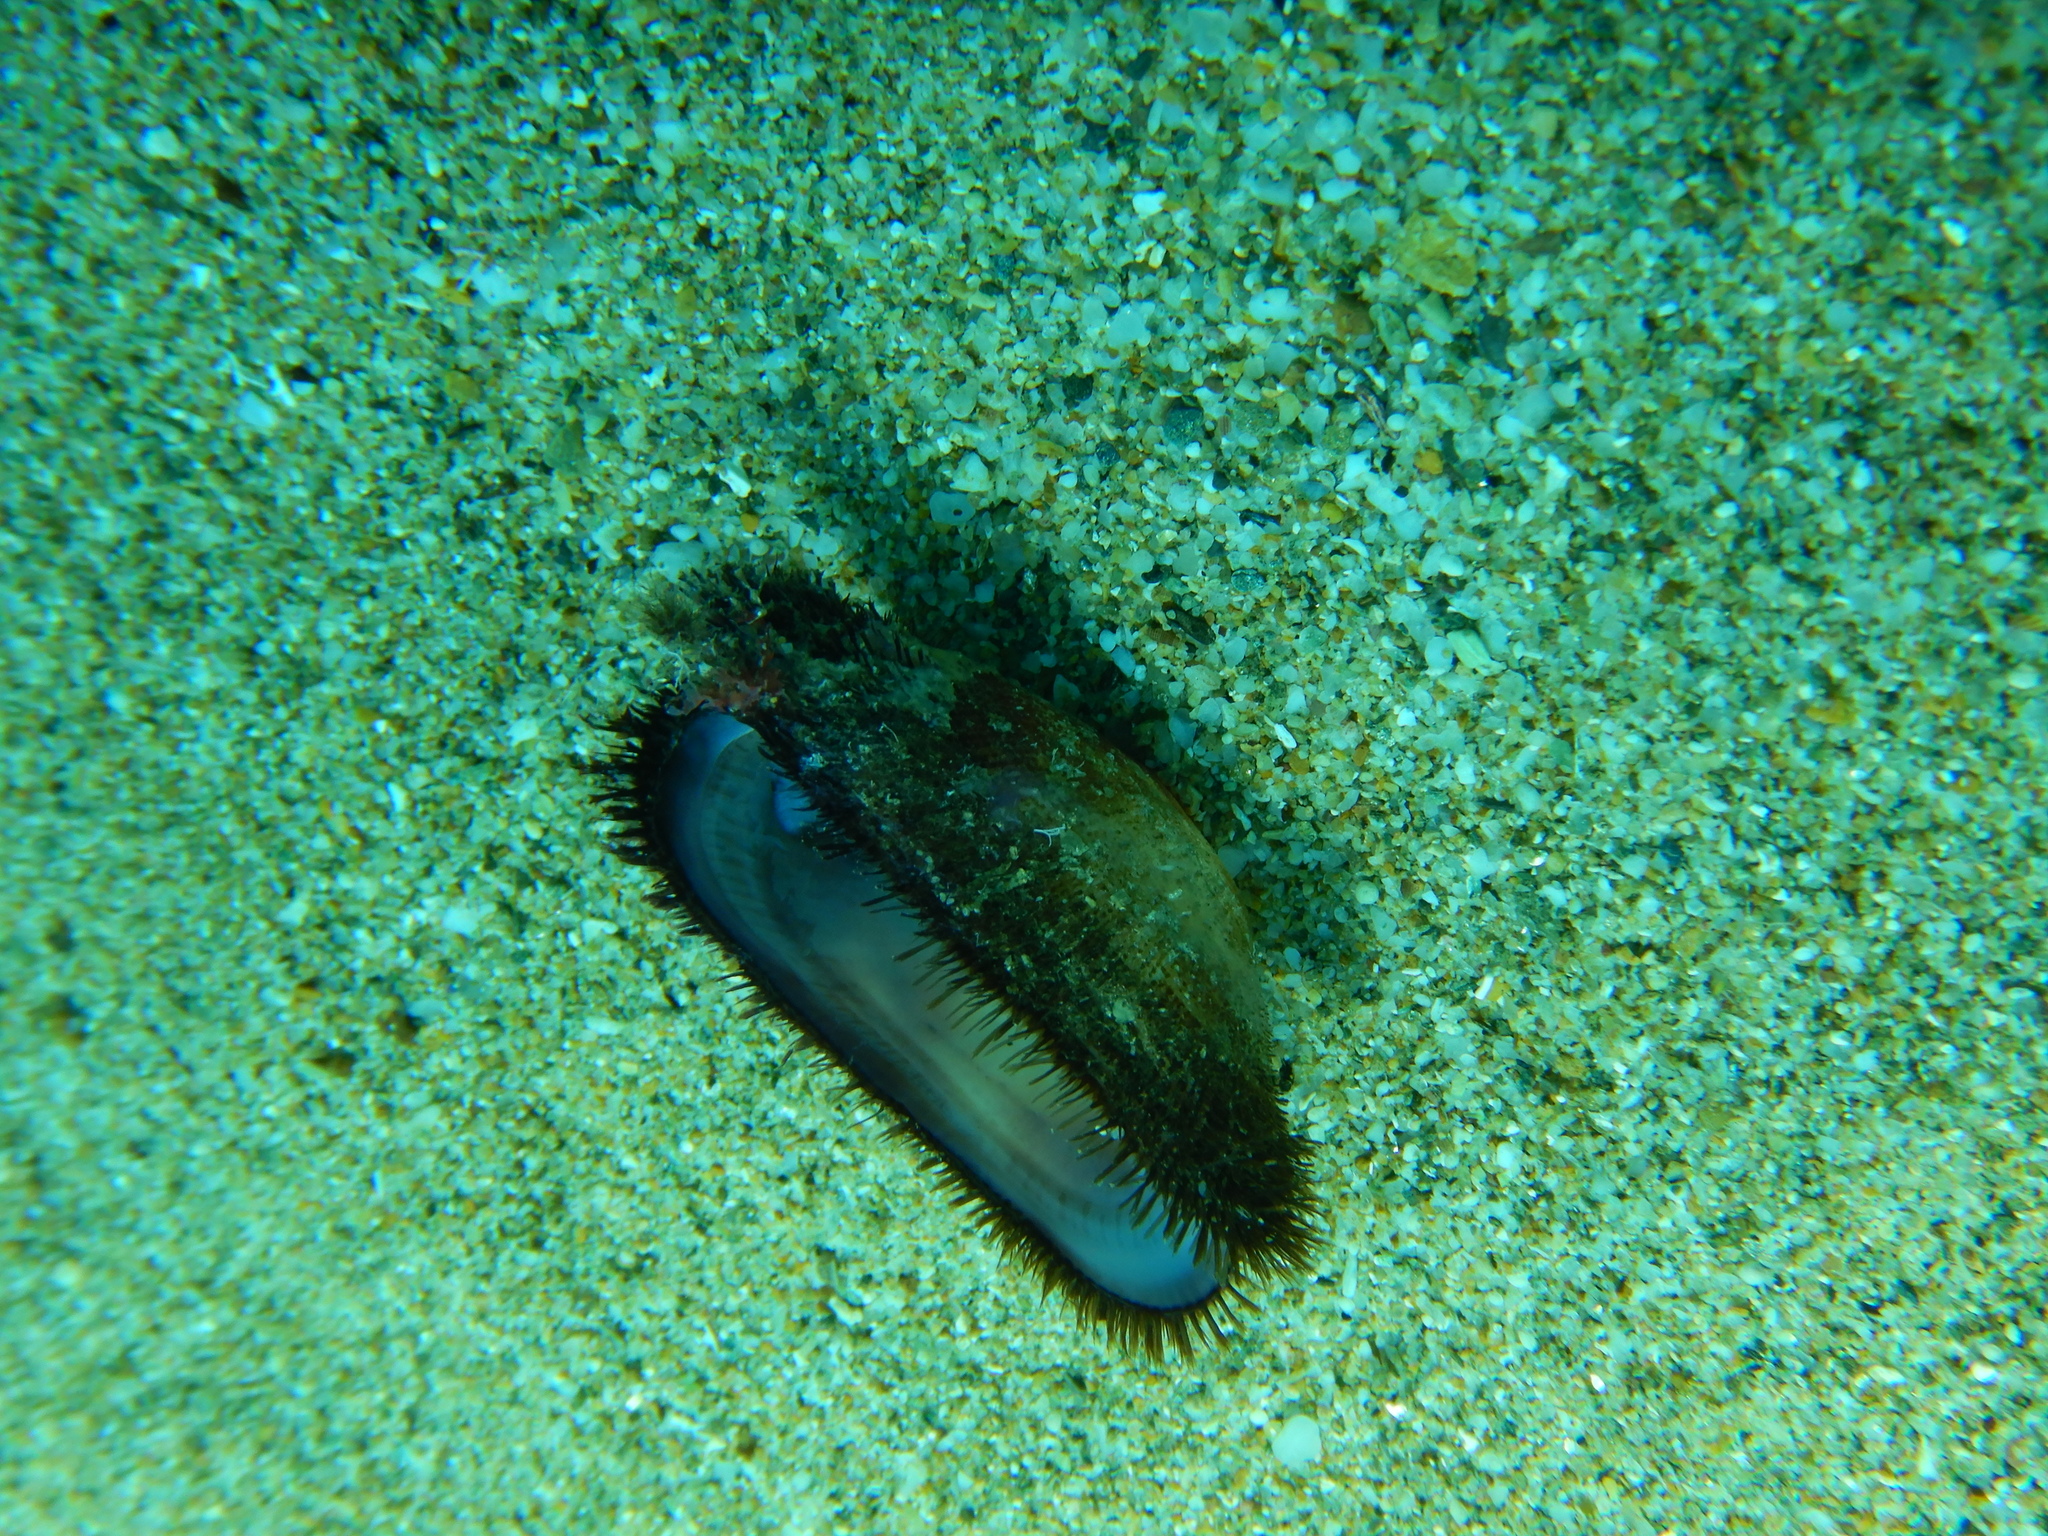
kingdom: Animalia
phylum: Mollusca
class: Bivalvia
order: Arcida
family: Arcidae
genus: Barbatia
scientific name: Barbatia barbata
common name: Bearded ark
